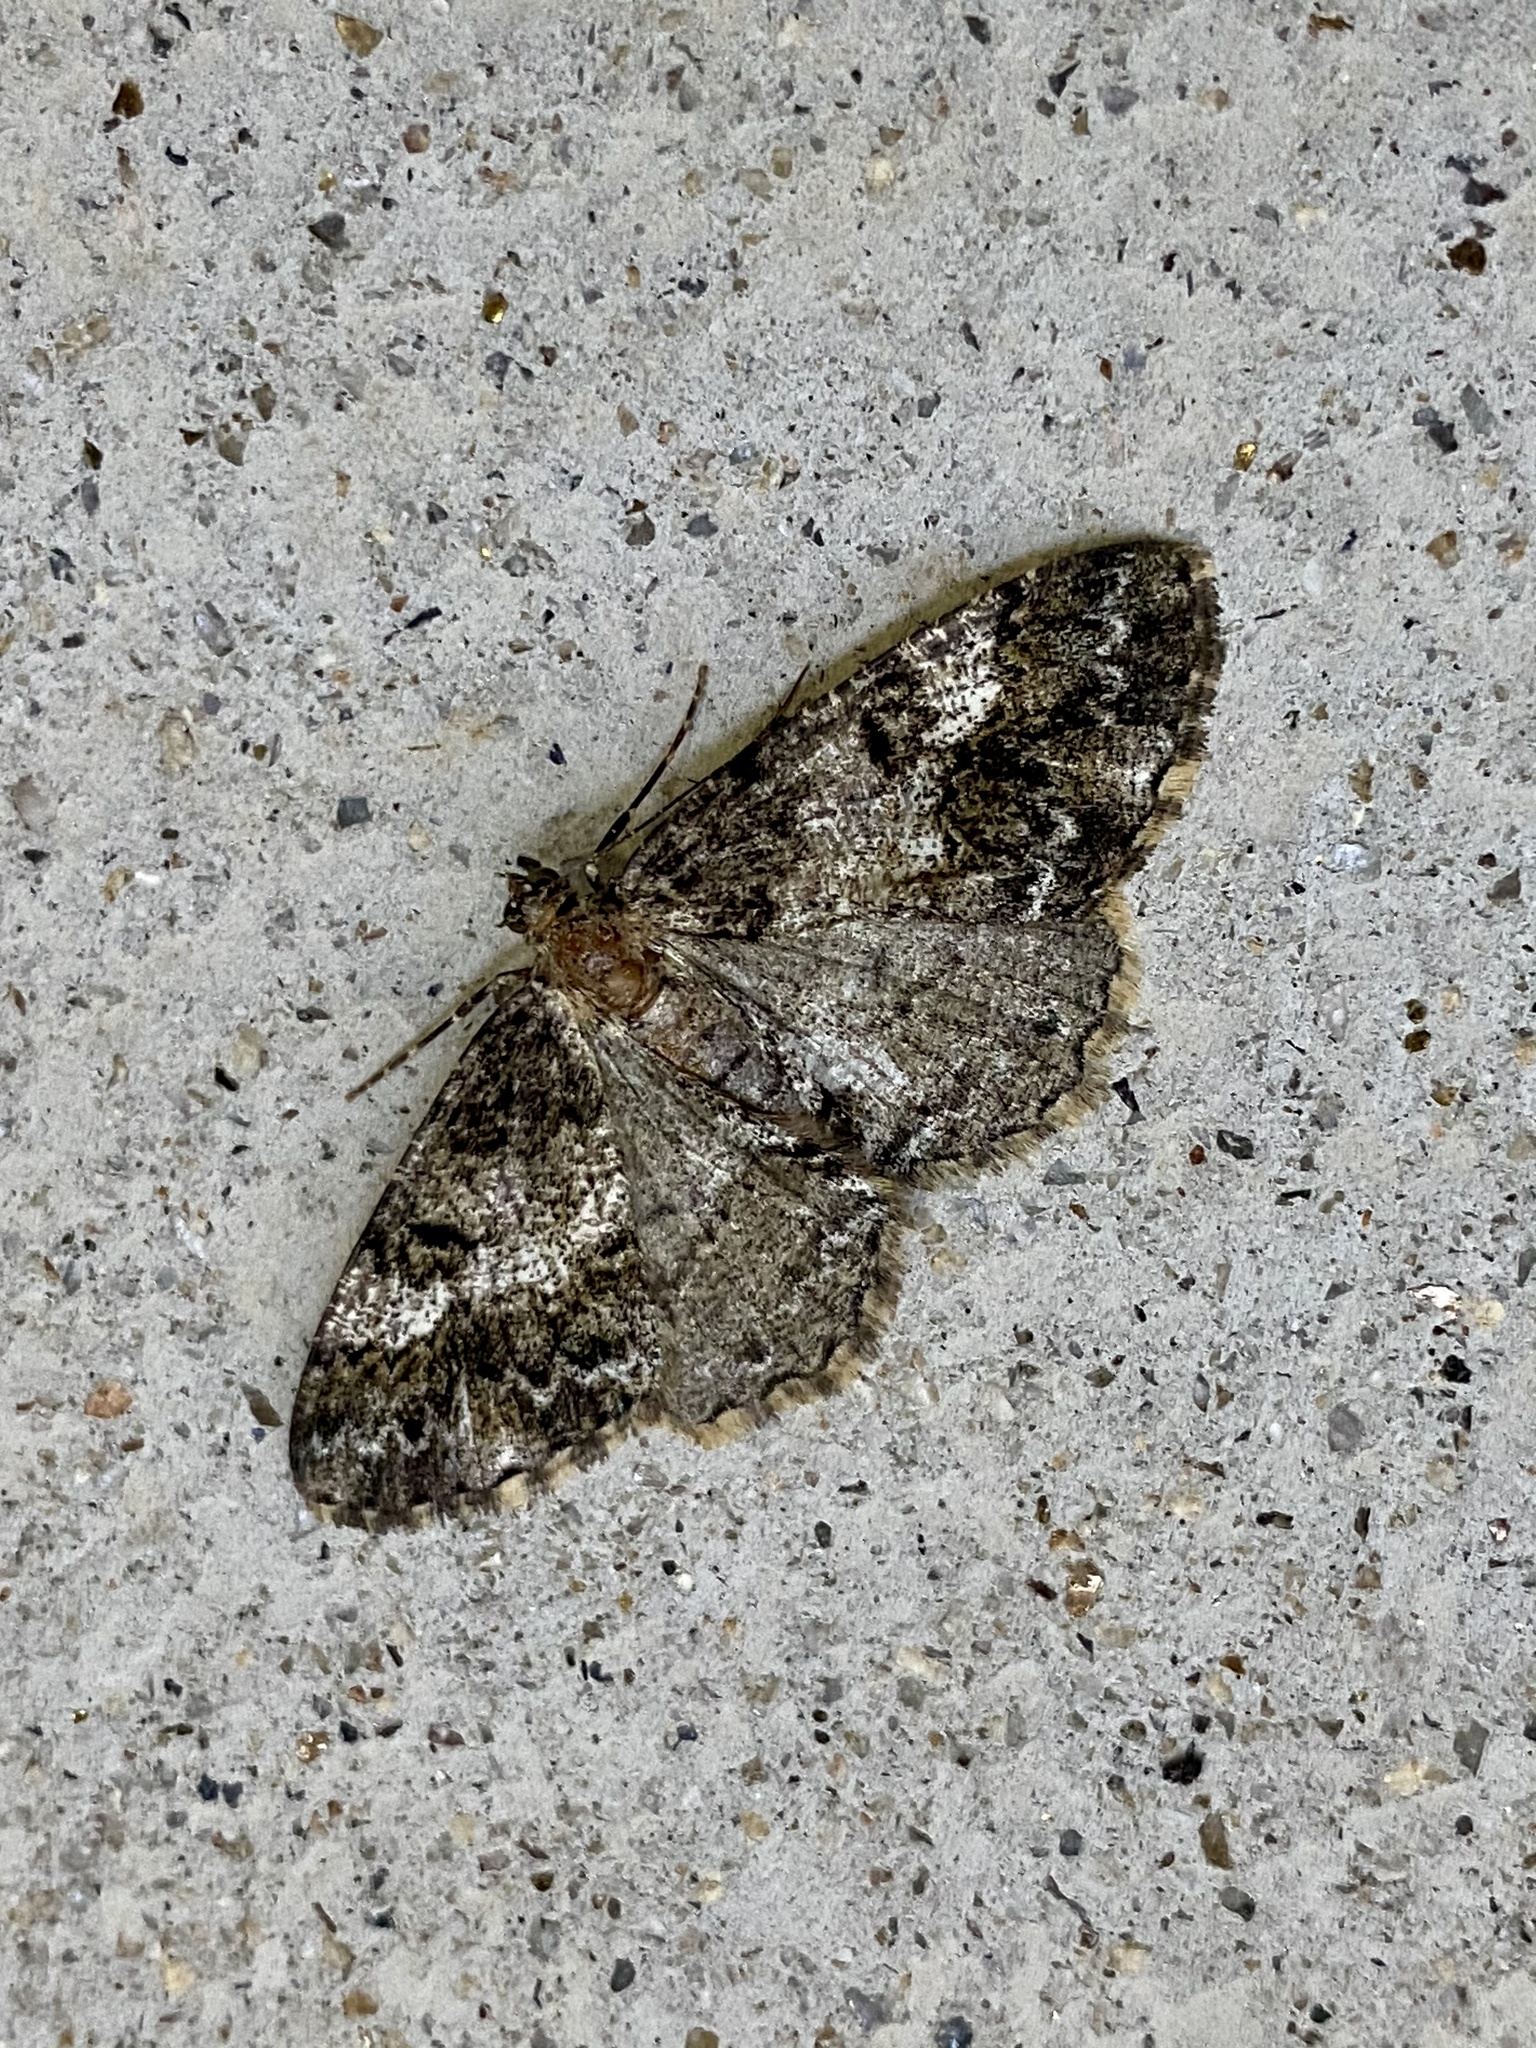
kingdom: Animalia
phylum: Arthropoda
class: Insecta
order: Lepidoptera
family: Geometridae
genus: Alcis
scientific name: Alcis angulifera
